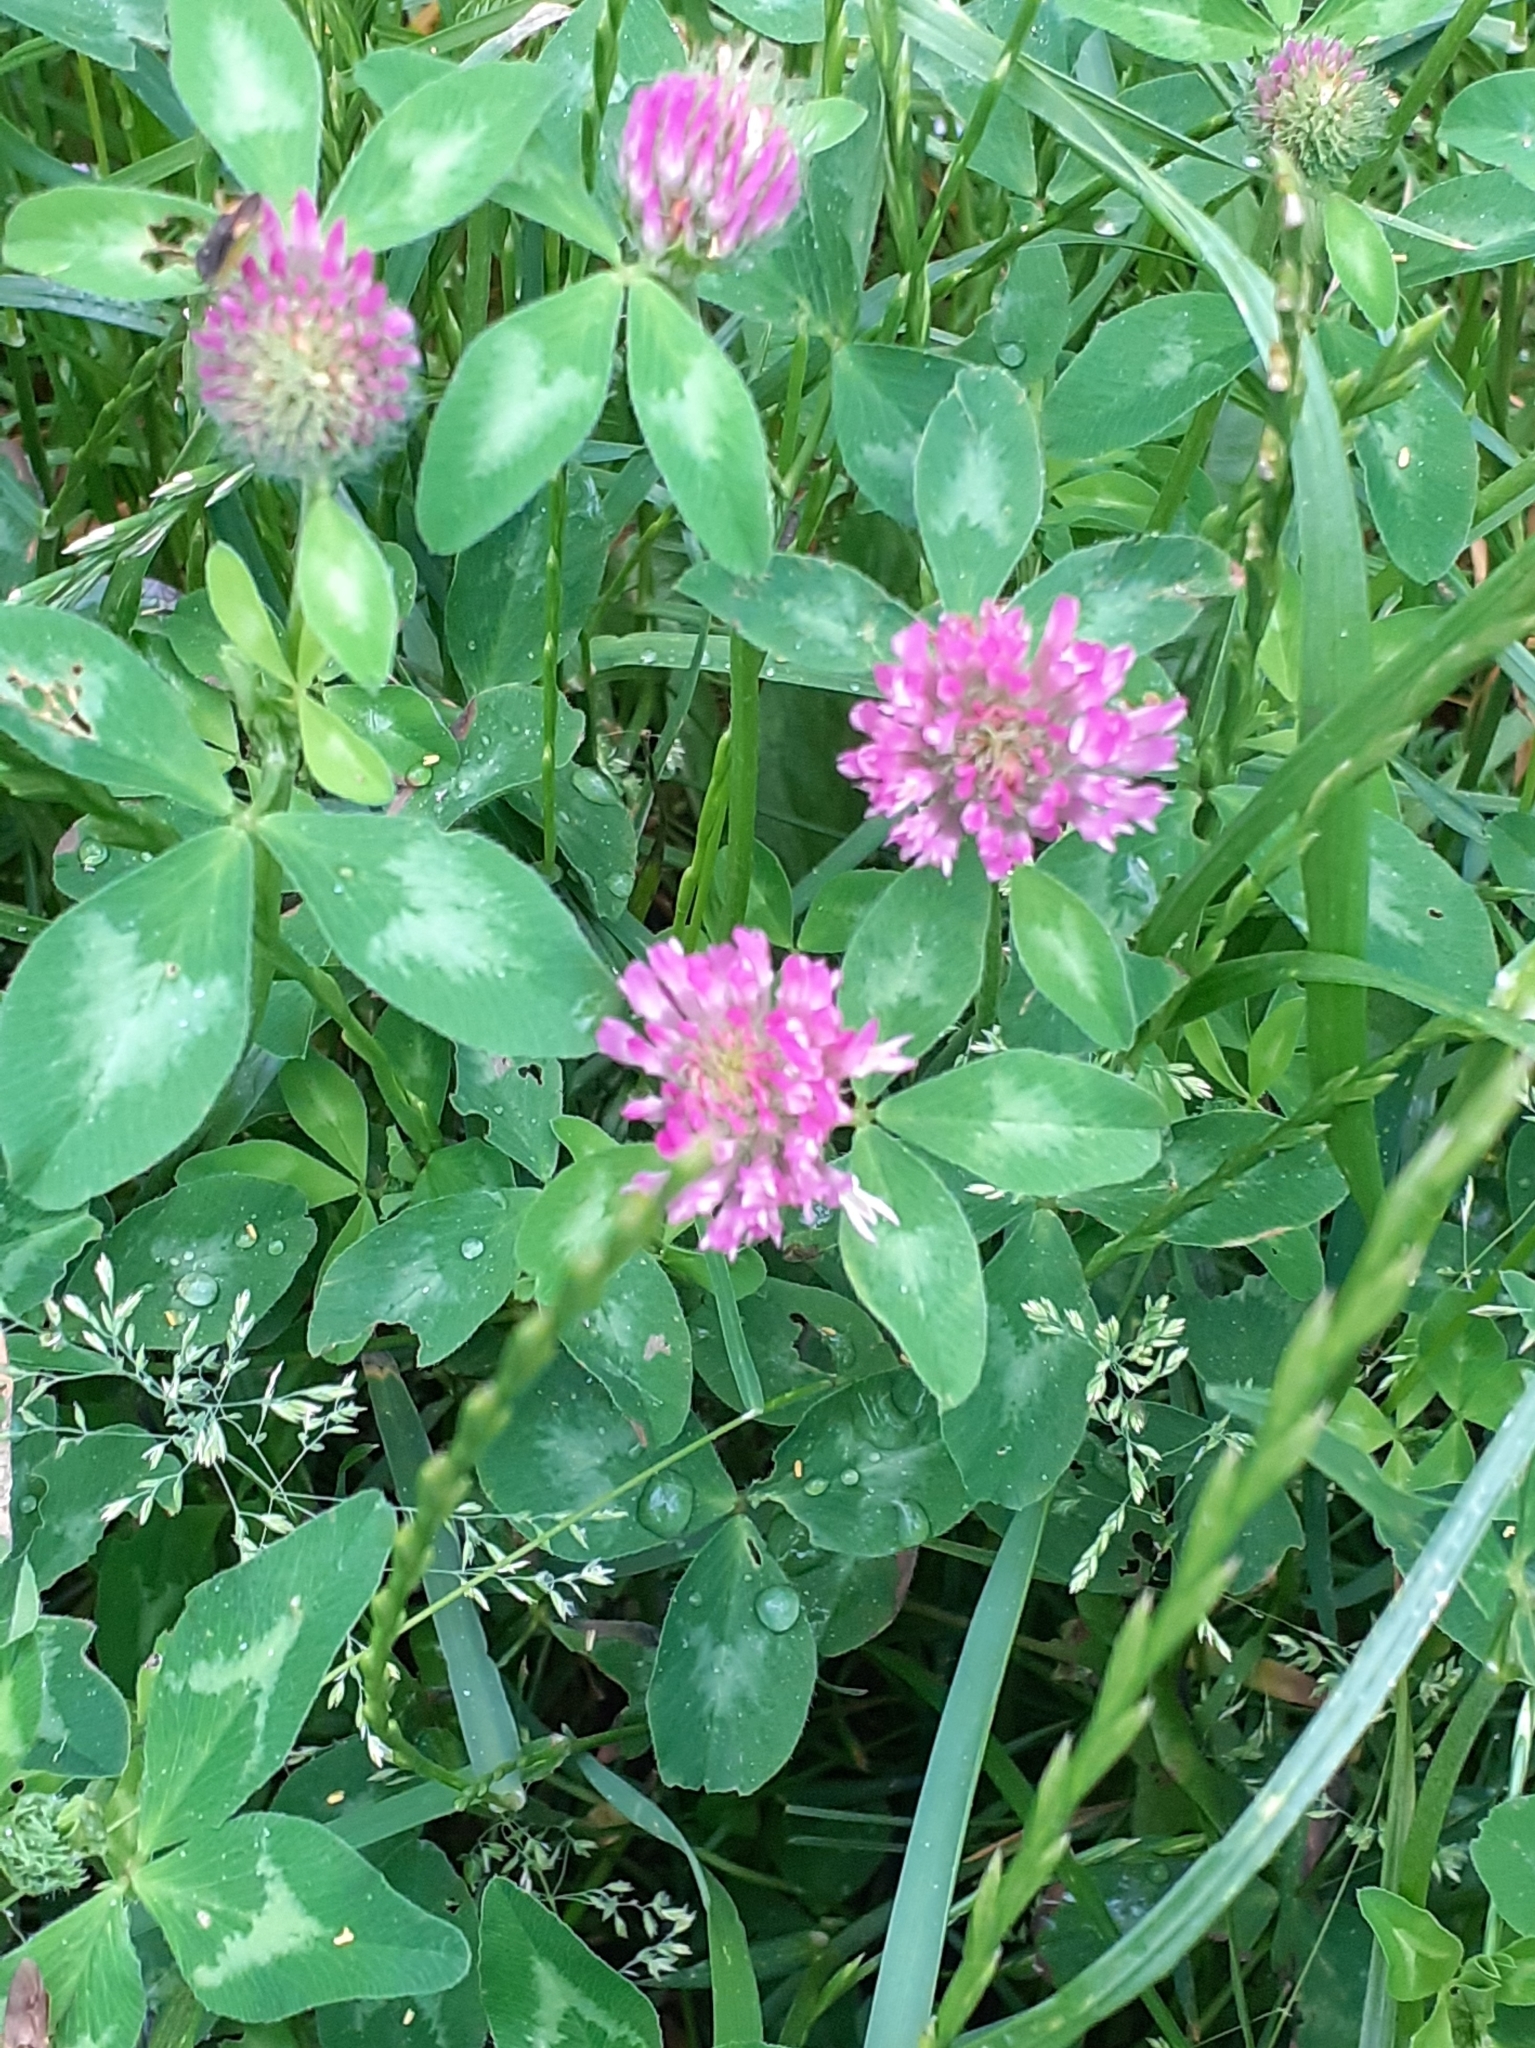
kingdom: Plantae
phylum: Tracheophyta
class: Magnoliopsida
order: Fabales
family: Fabaceae
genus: Trifolium
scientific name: Trifolium pratense
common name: Red clover
